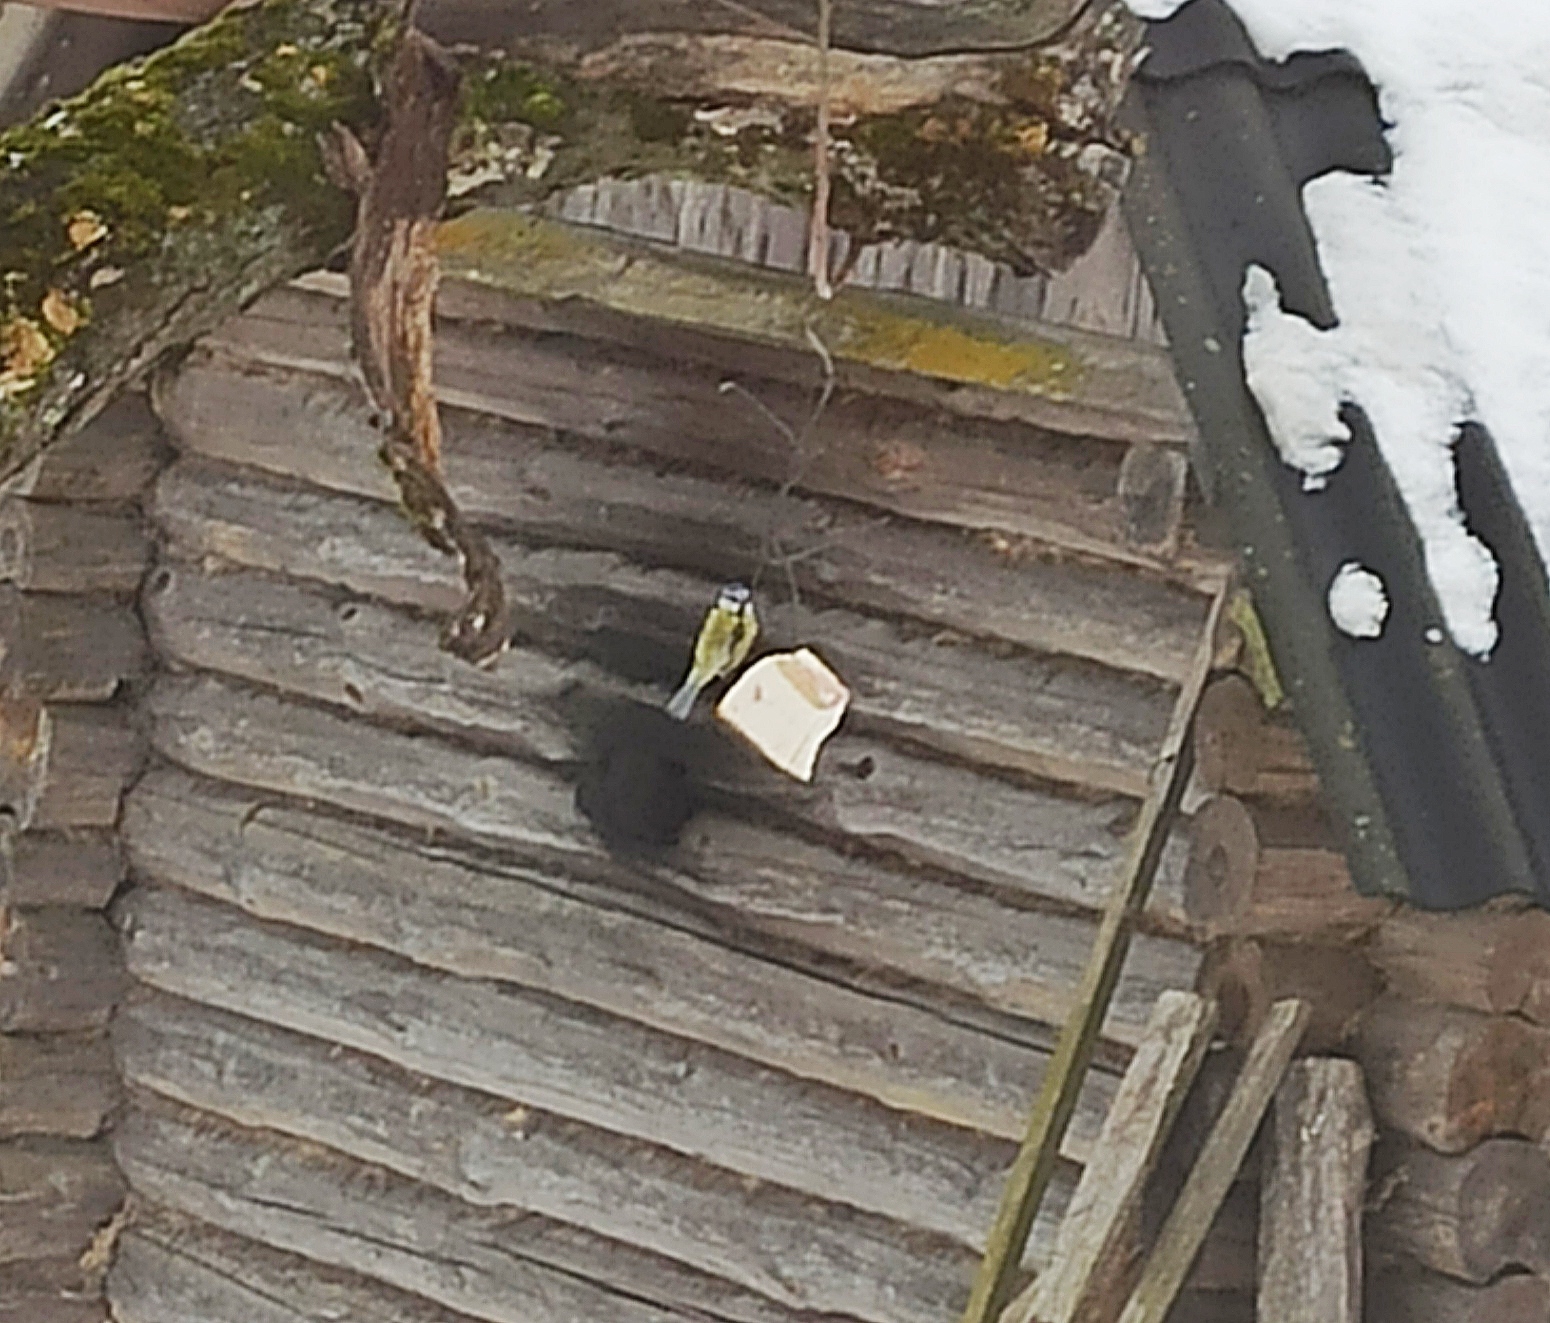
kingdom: Animalia
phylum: Chordata
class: Aves
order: Passeriformes
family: Paridae
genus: Cyanistes
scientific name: Cyanistes caeruleus
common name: Eurasian blue tit
